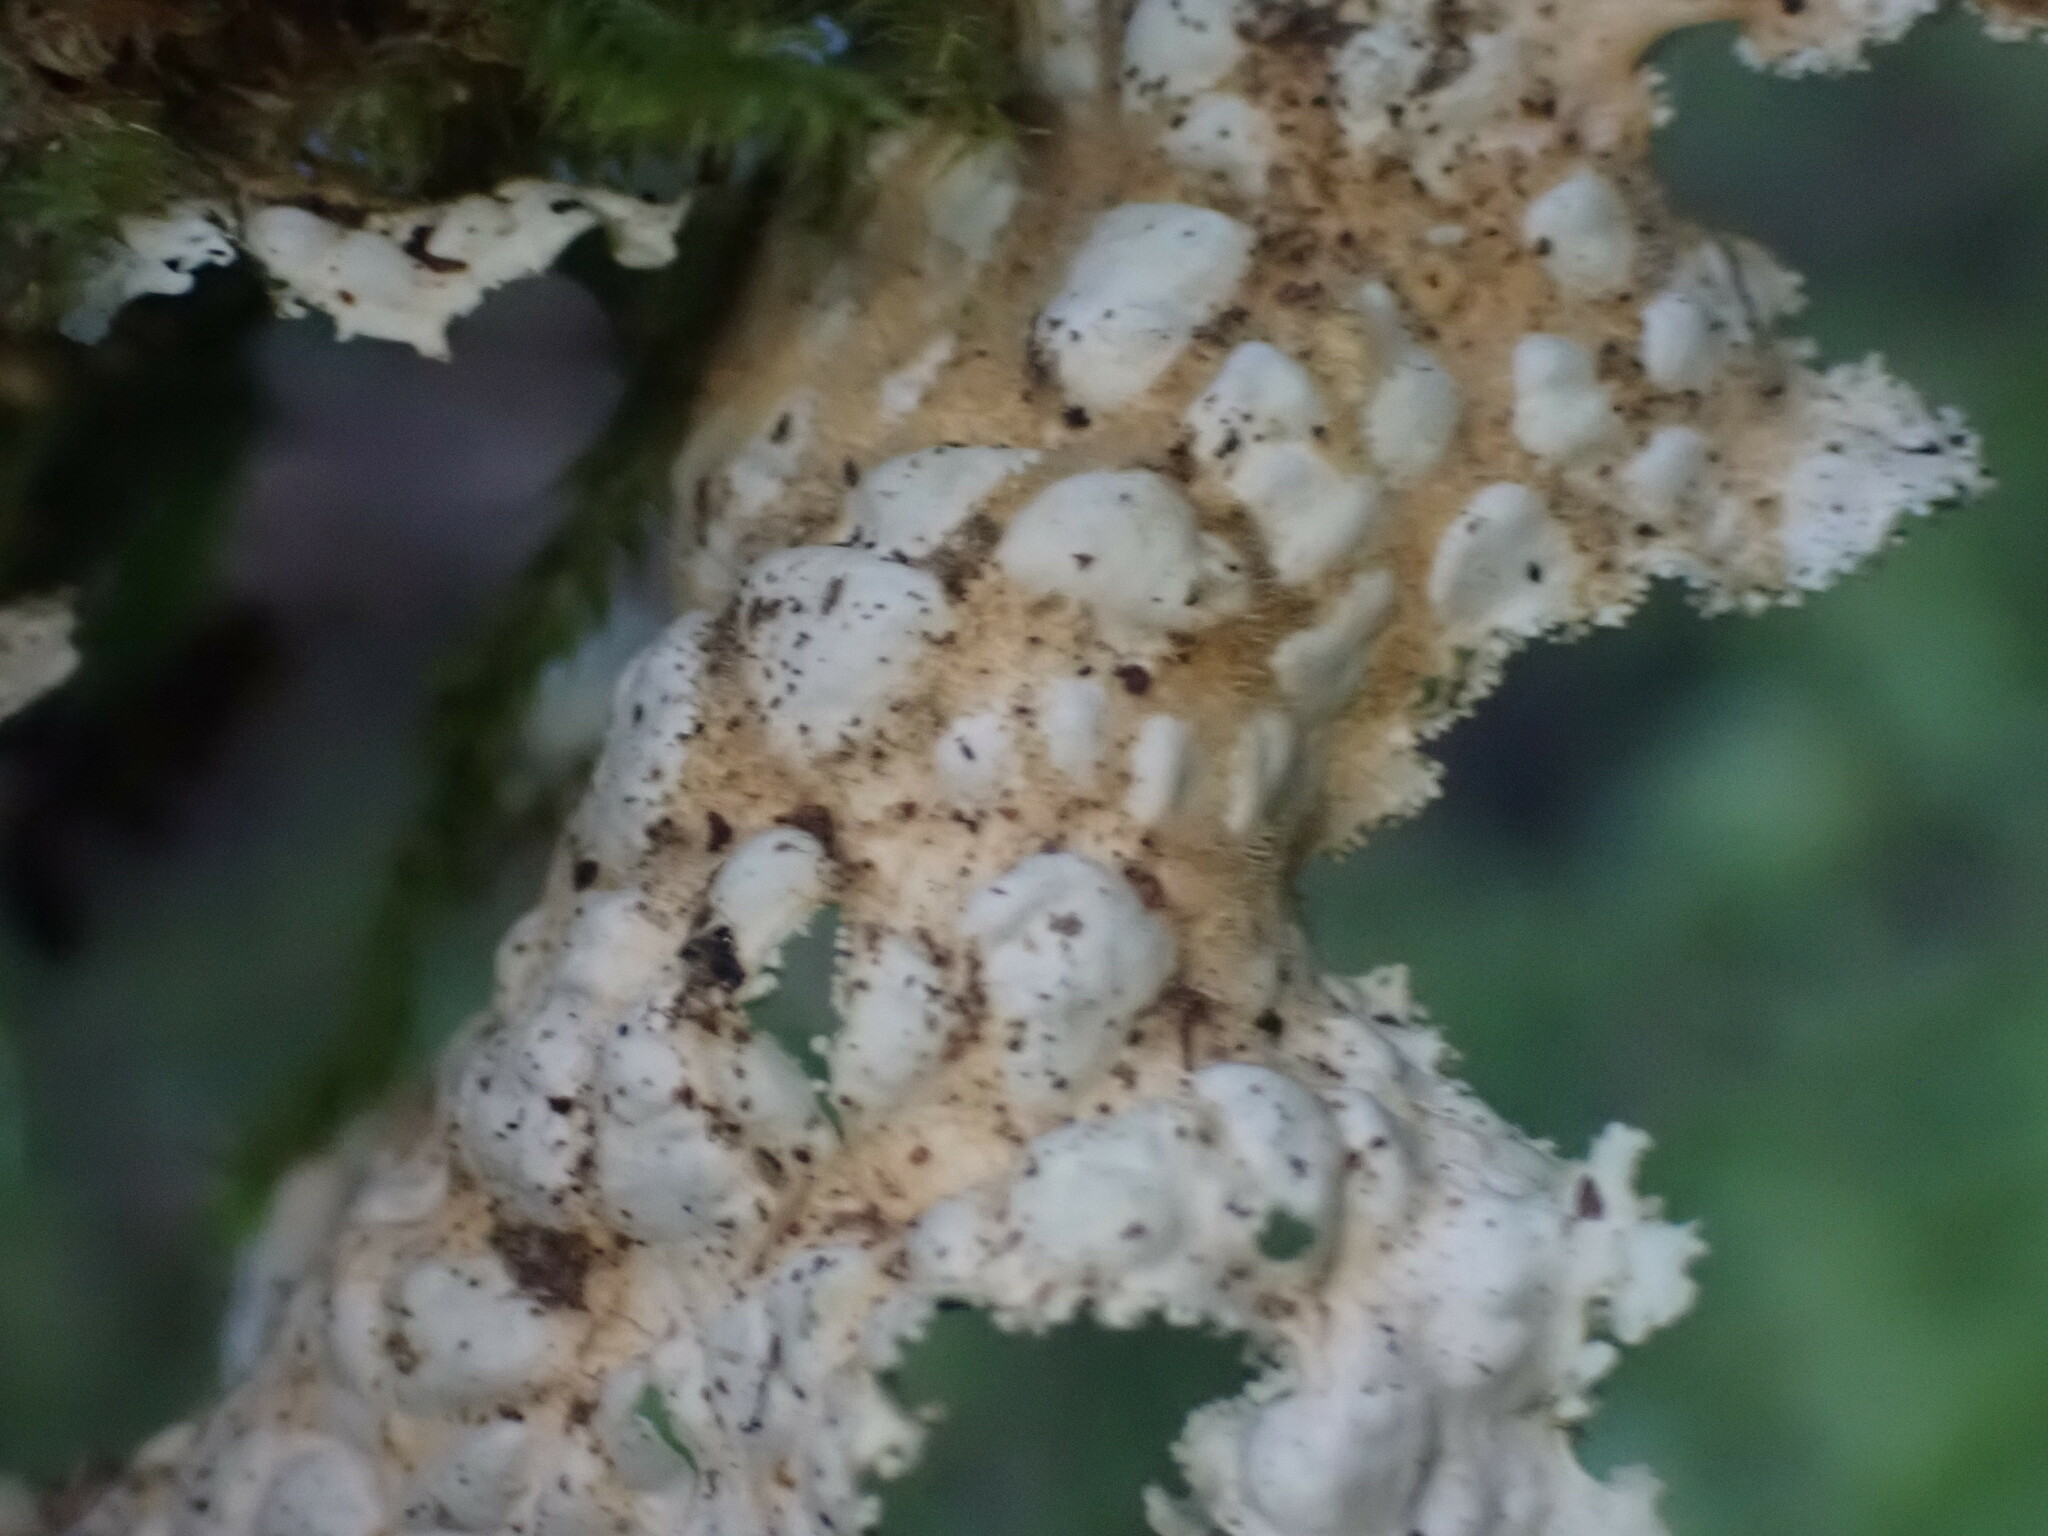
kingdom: Fungi
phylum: Ascomycota
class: Lecanoromycetes
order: Peltigerales
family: Lobariaceae
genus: Lobaria
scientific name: Lobaria oregana
